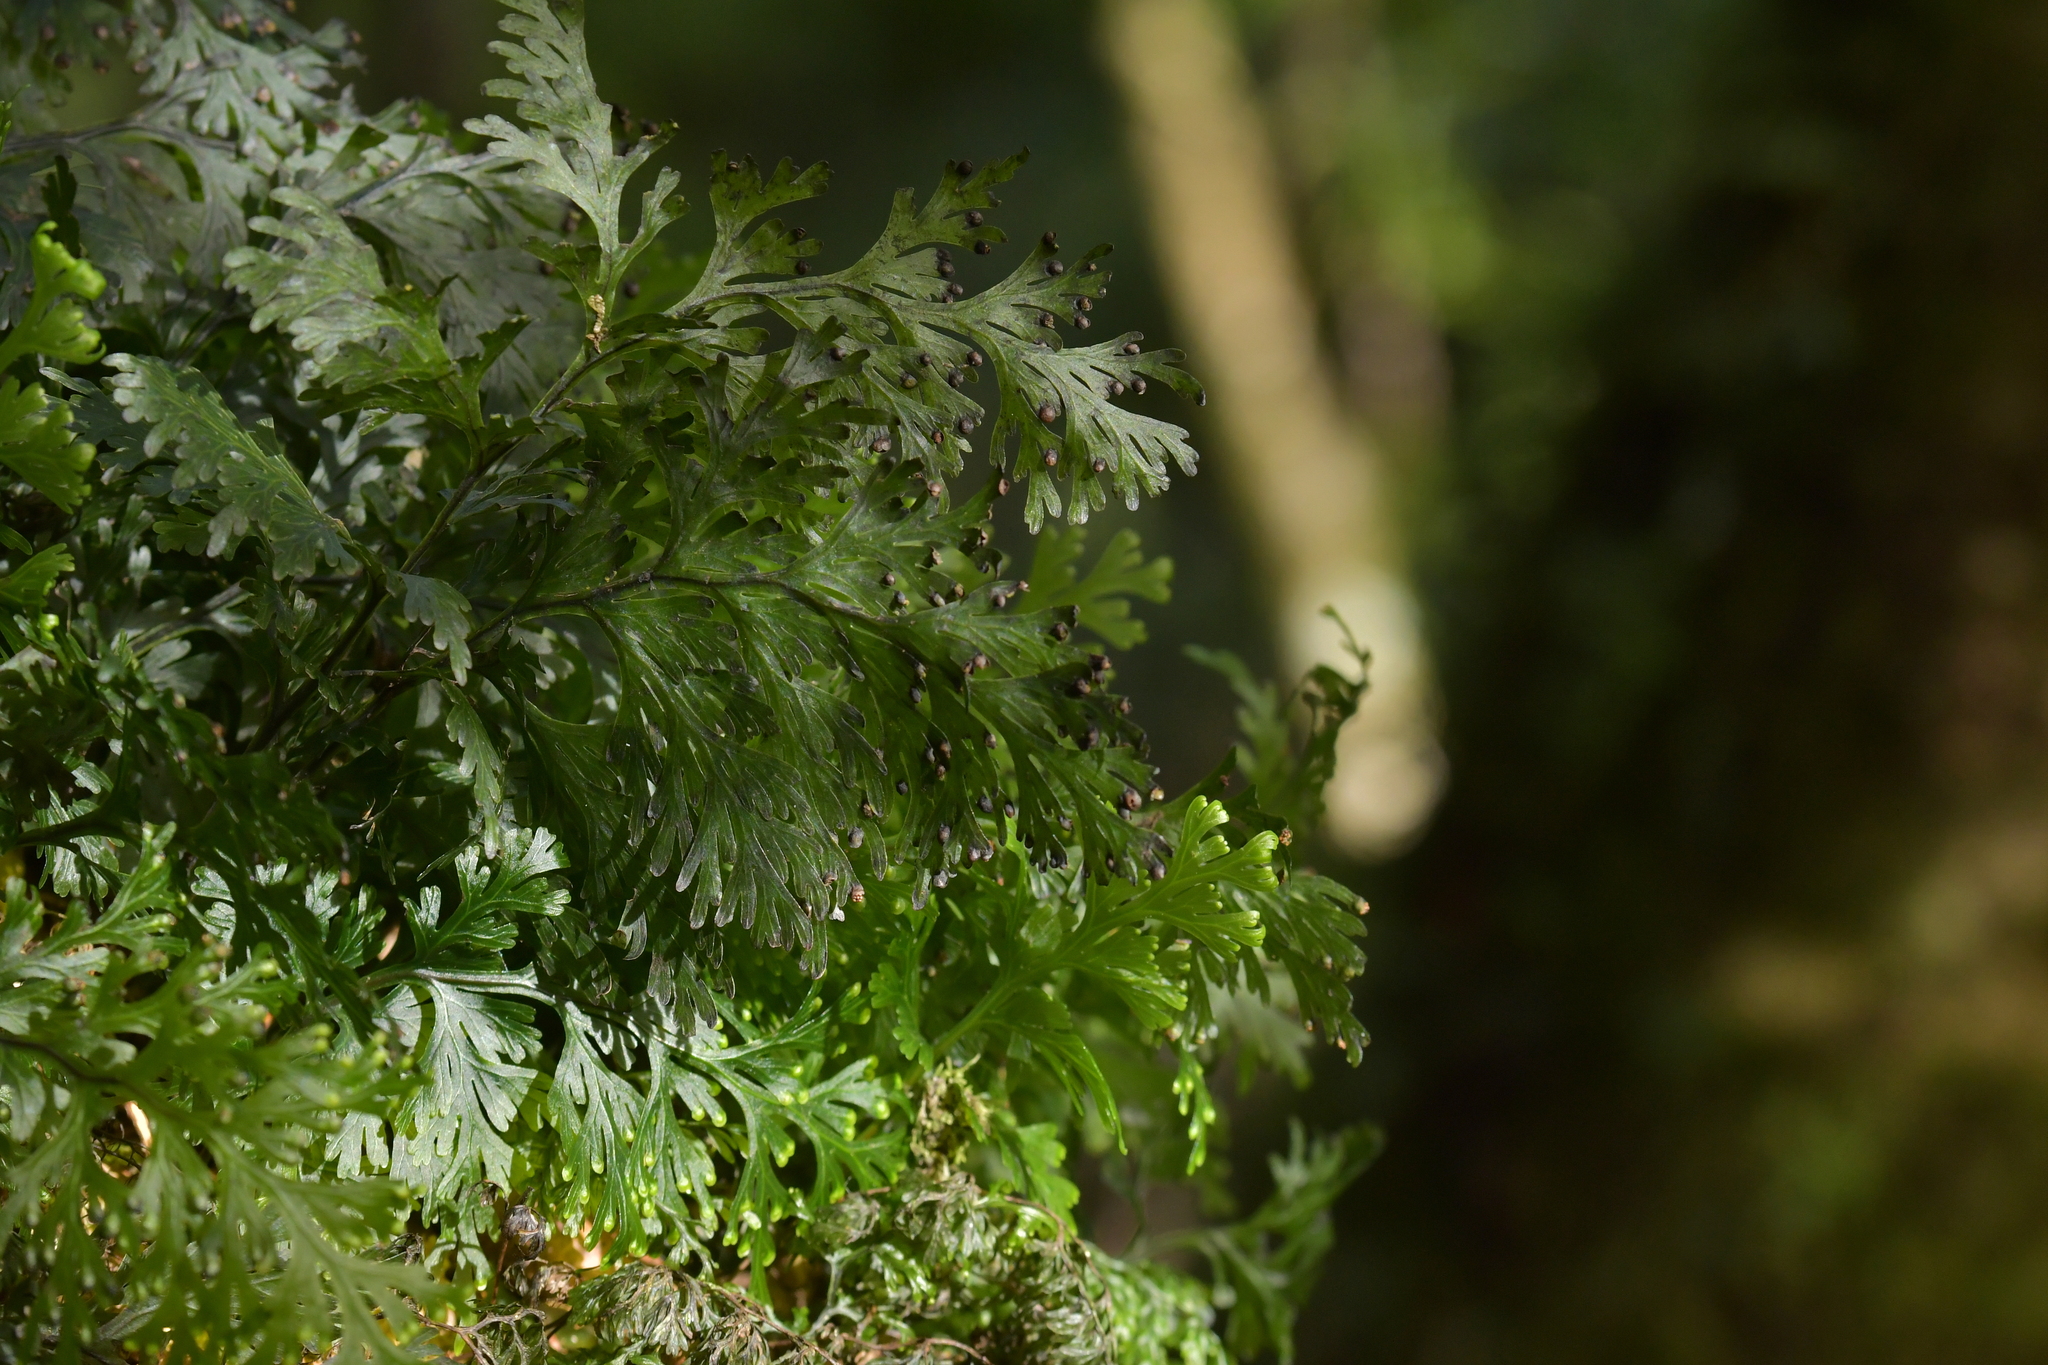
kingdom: Plantae
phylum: Tracheophyta
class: Polypodiopsida
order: Hymenophyllales
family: Hymenophyllaceae
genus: Hymenophyllum
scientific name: Hymenophyllum dilatatum
